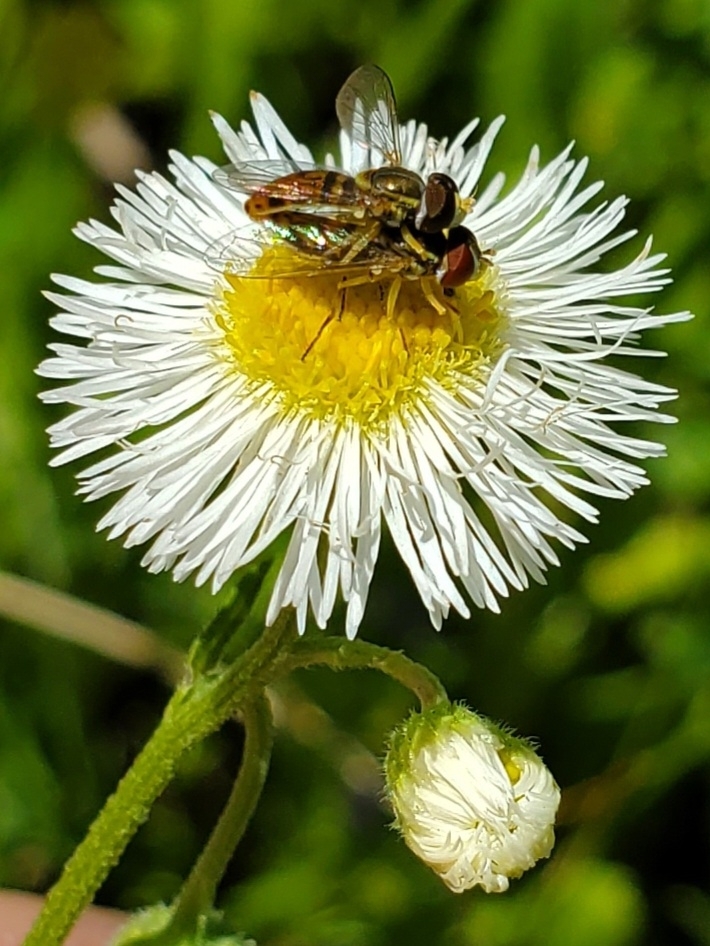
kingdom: Animalia
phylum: Arthropoda
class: Insecta
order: Diptera
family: Syrphidae
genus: Toxomerus
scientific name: Toxomerus marginatus
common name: Syrphid fly
